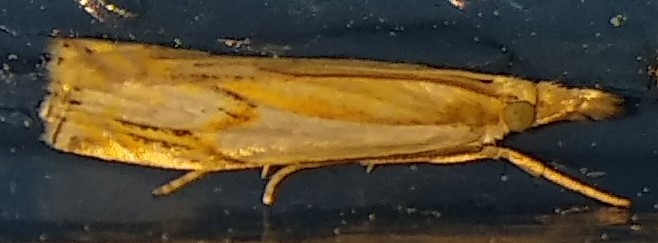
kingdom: Animalia
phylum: Arthropoda
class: Insecta
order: Lepidoptera
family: Crambidae
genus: Crambus
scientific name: Crambus agitatellus
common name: Double-banded grass-veneer
